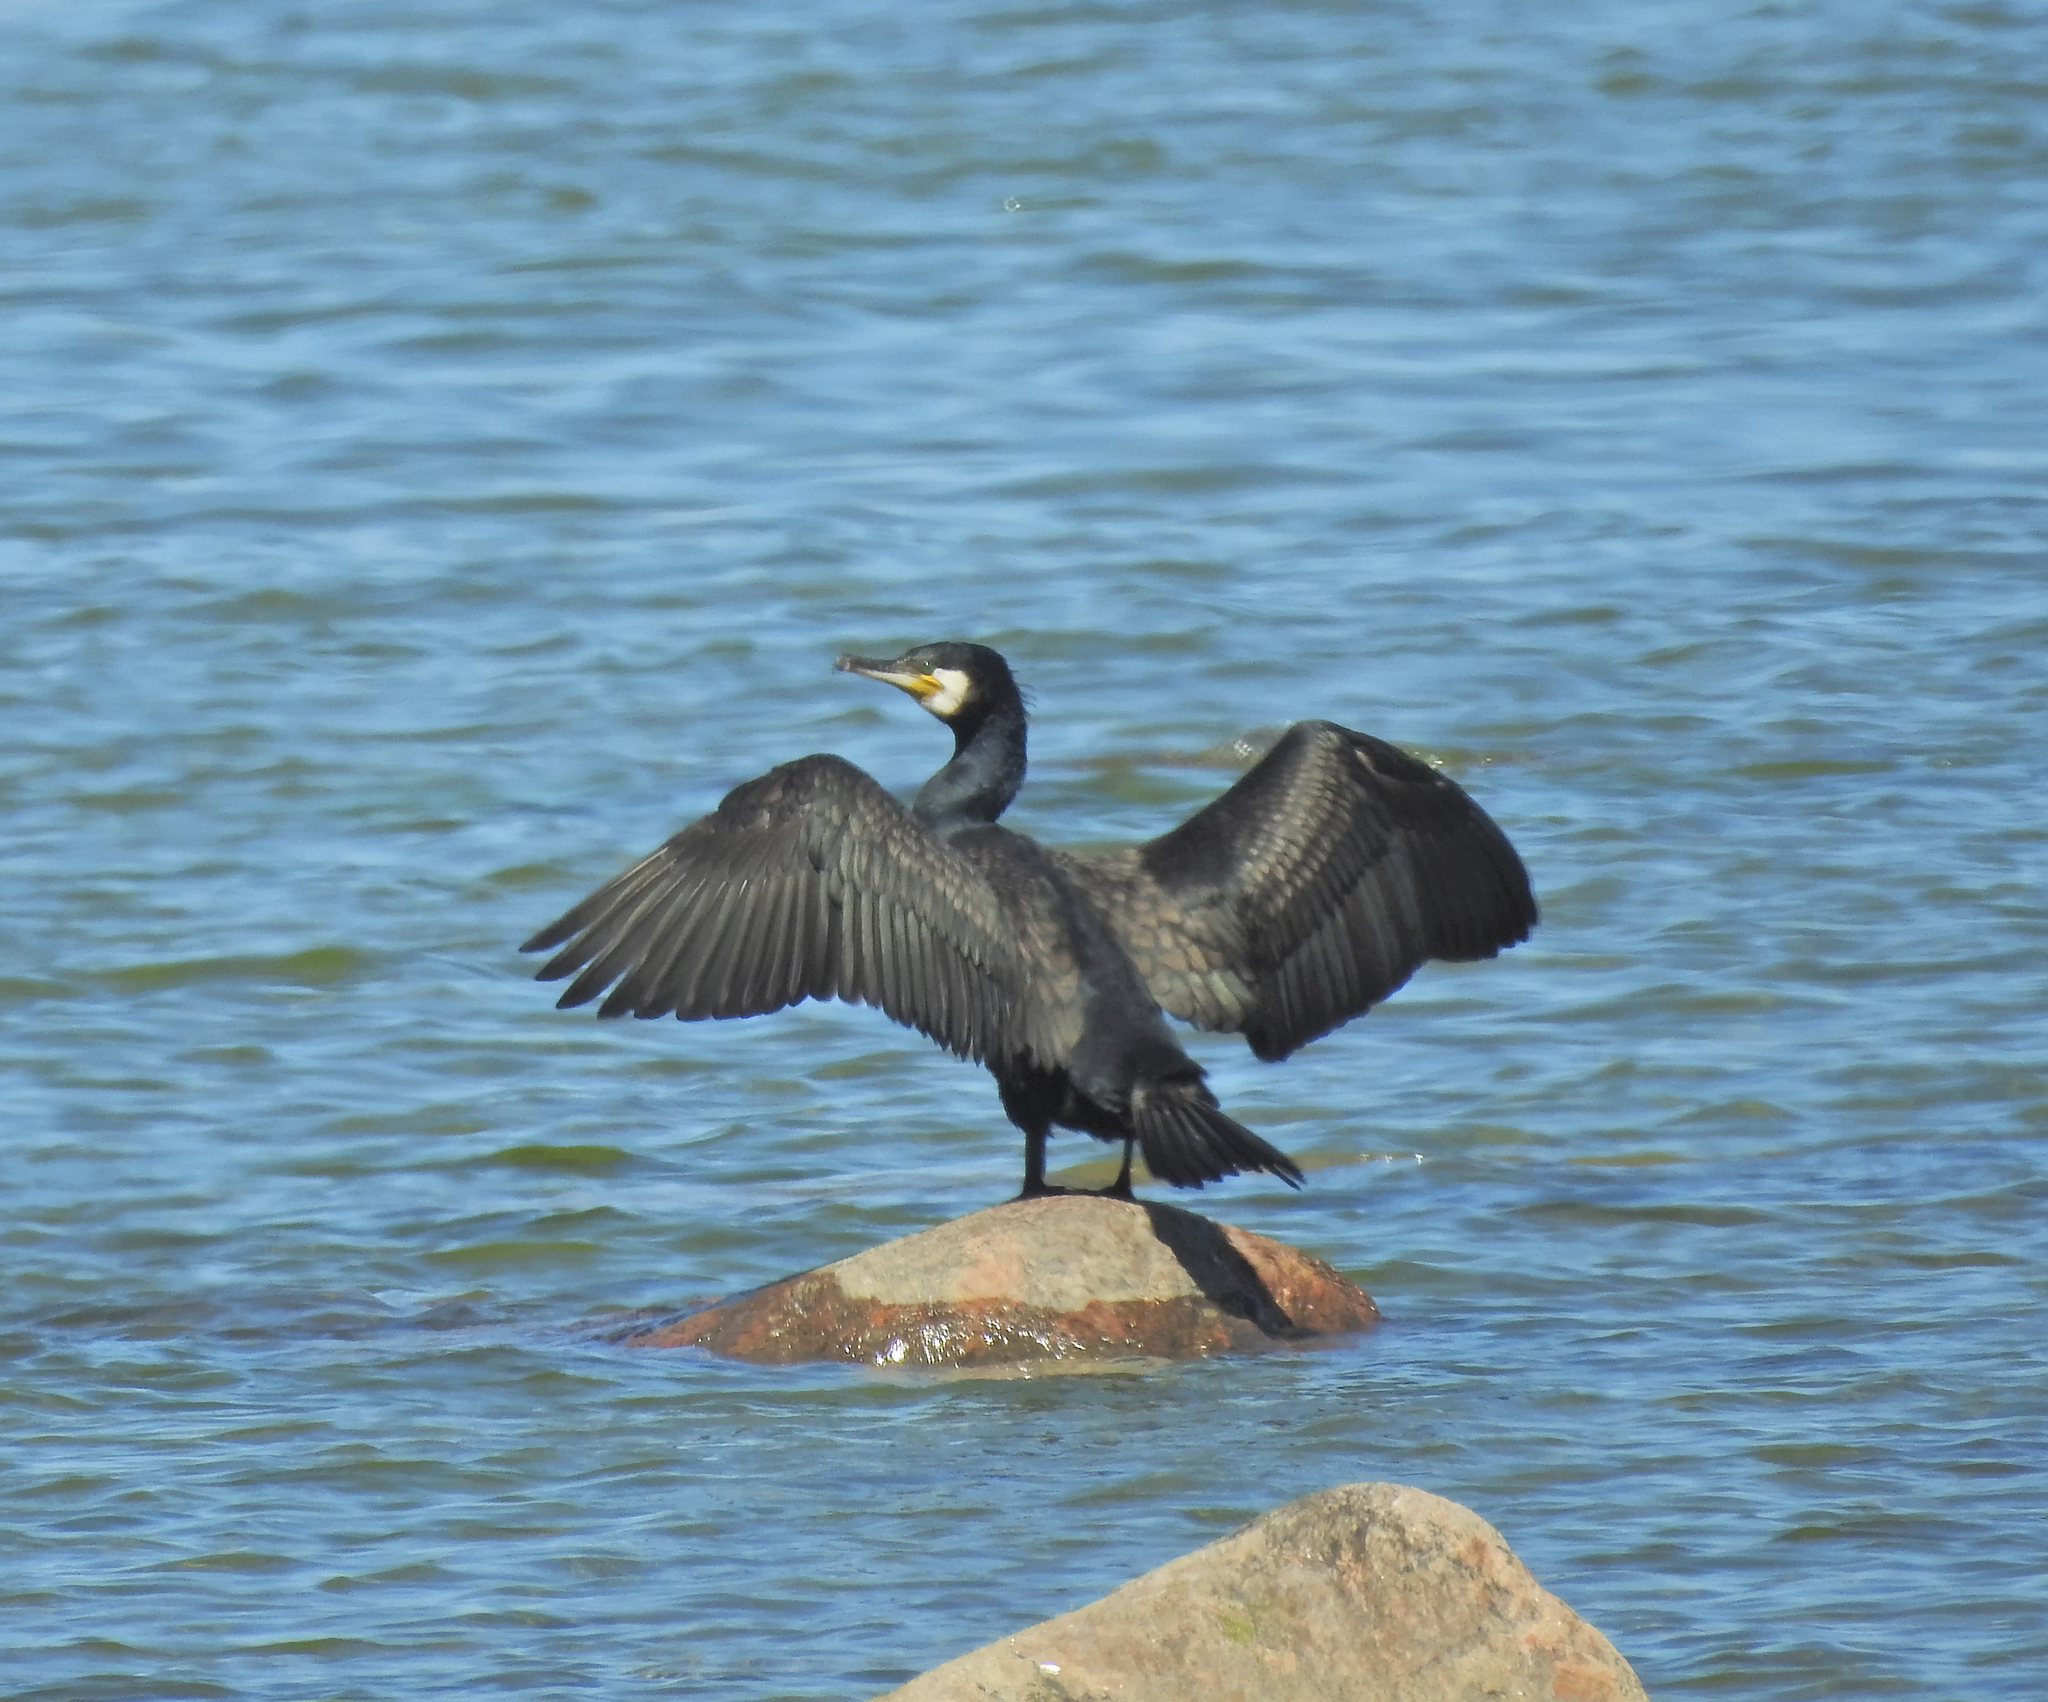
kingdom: Animalia
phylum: Chordata
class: Aves
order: Suliformes
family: Phalacrocoracidae
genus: Phalacrocorax
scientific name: Phalacrocorax carbo
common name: Great cormorant
